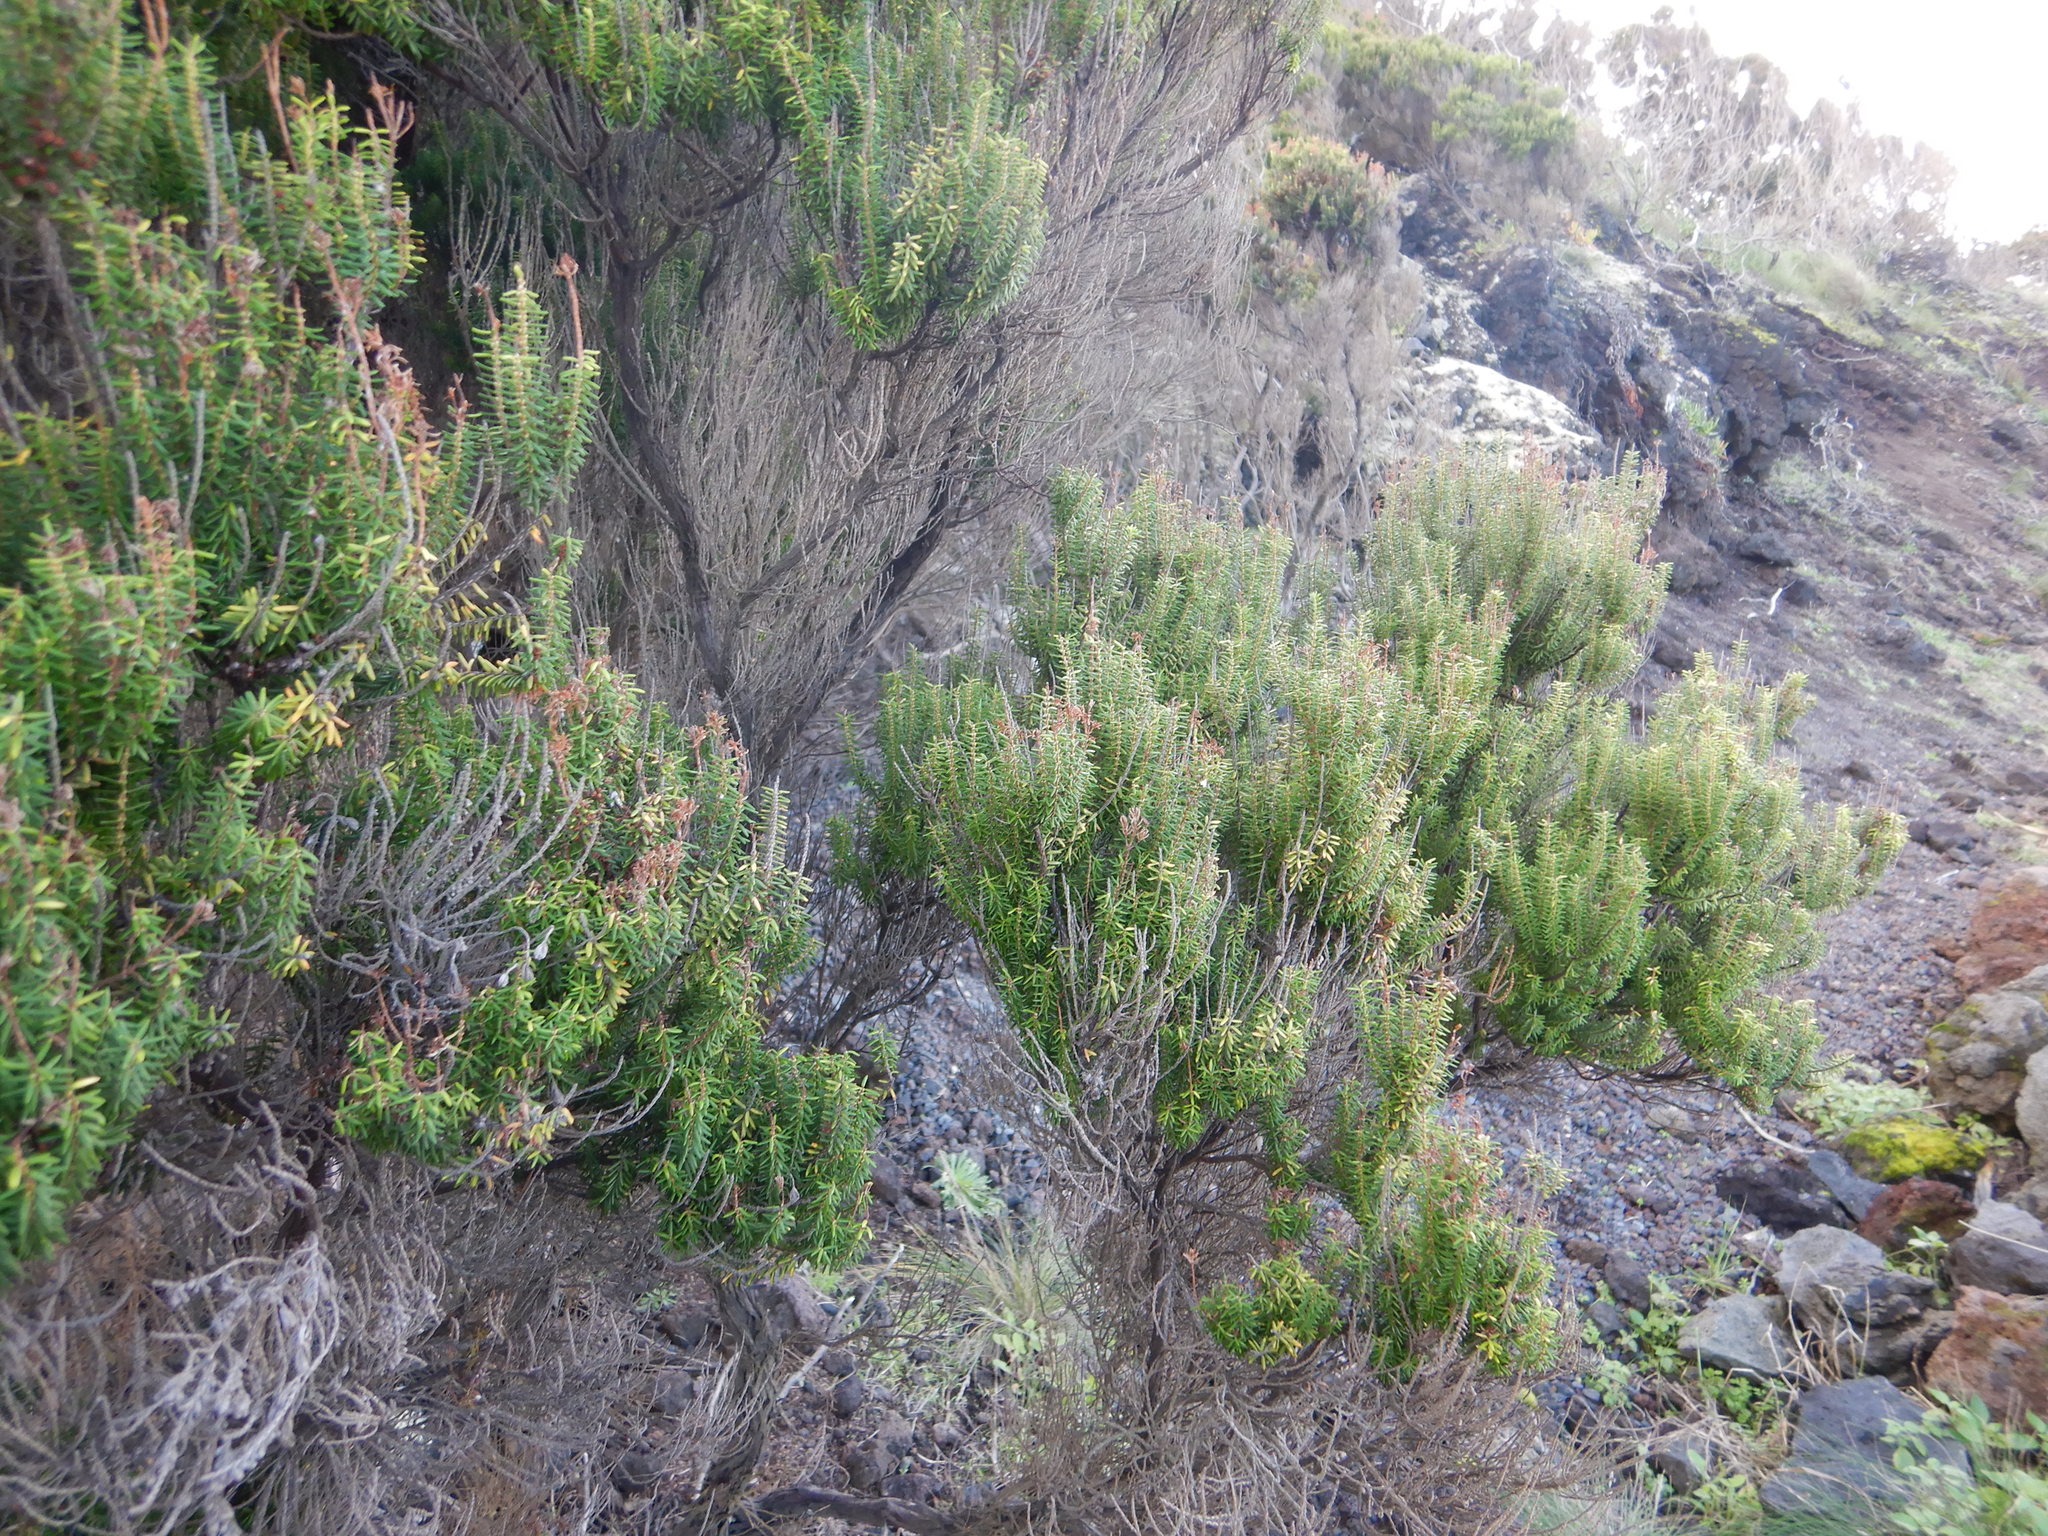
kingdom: Plantae
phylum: Tracheophyta
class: Magnoliopsida
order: Ericales
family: Ericaceae
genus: Erica
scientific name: Erica azorica
